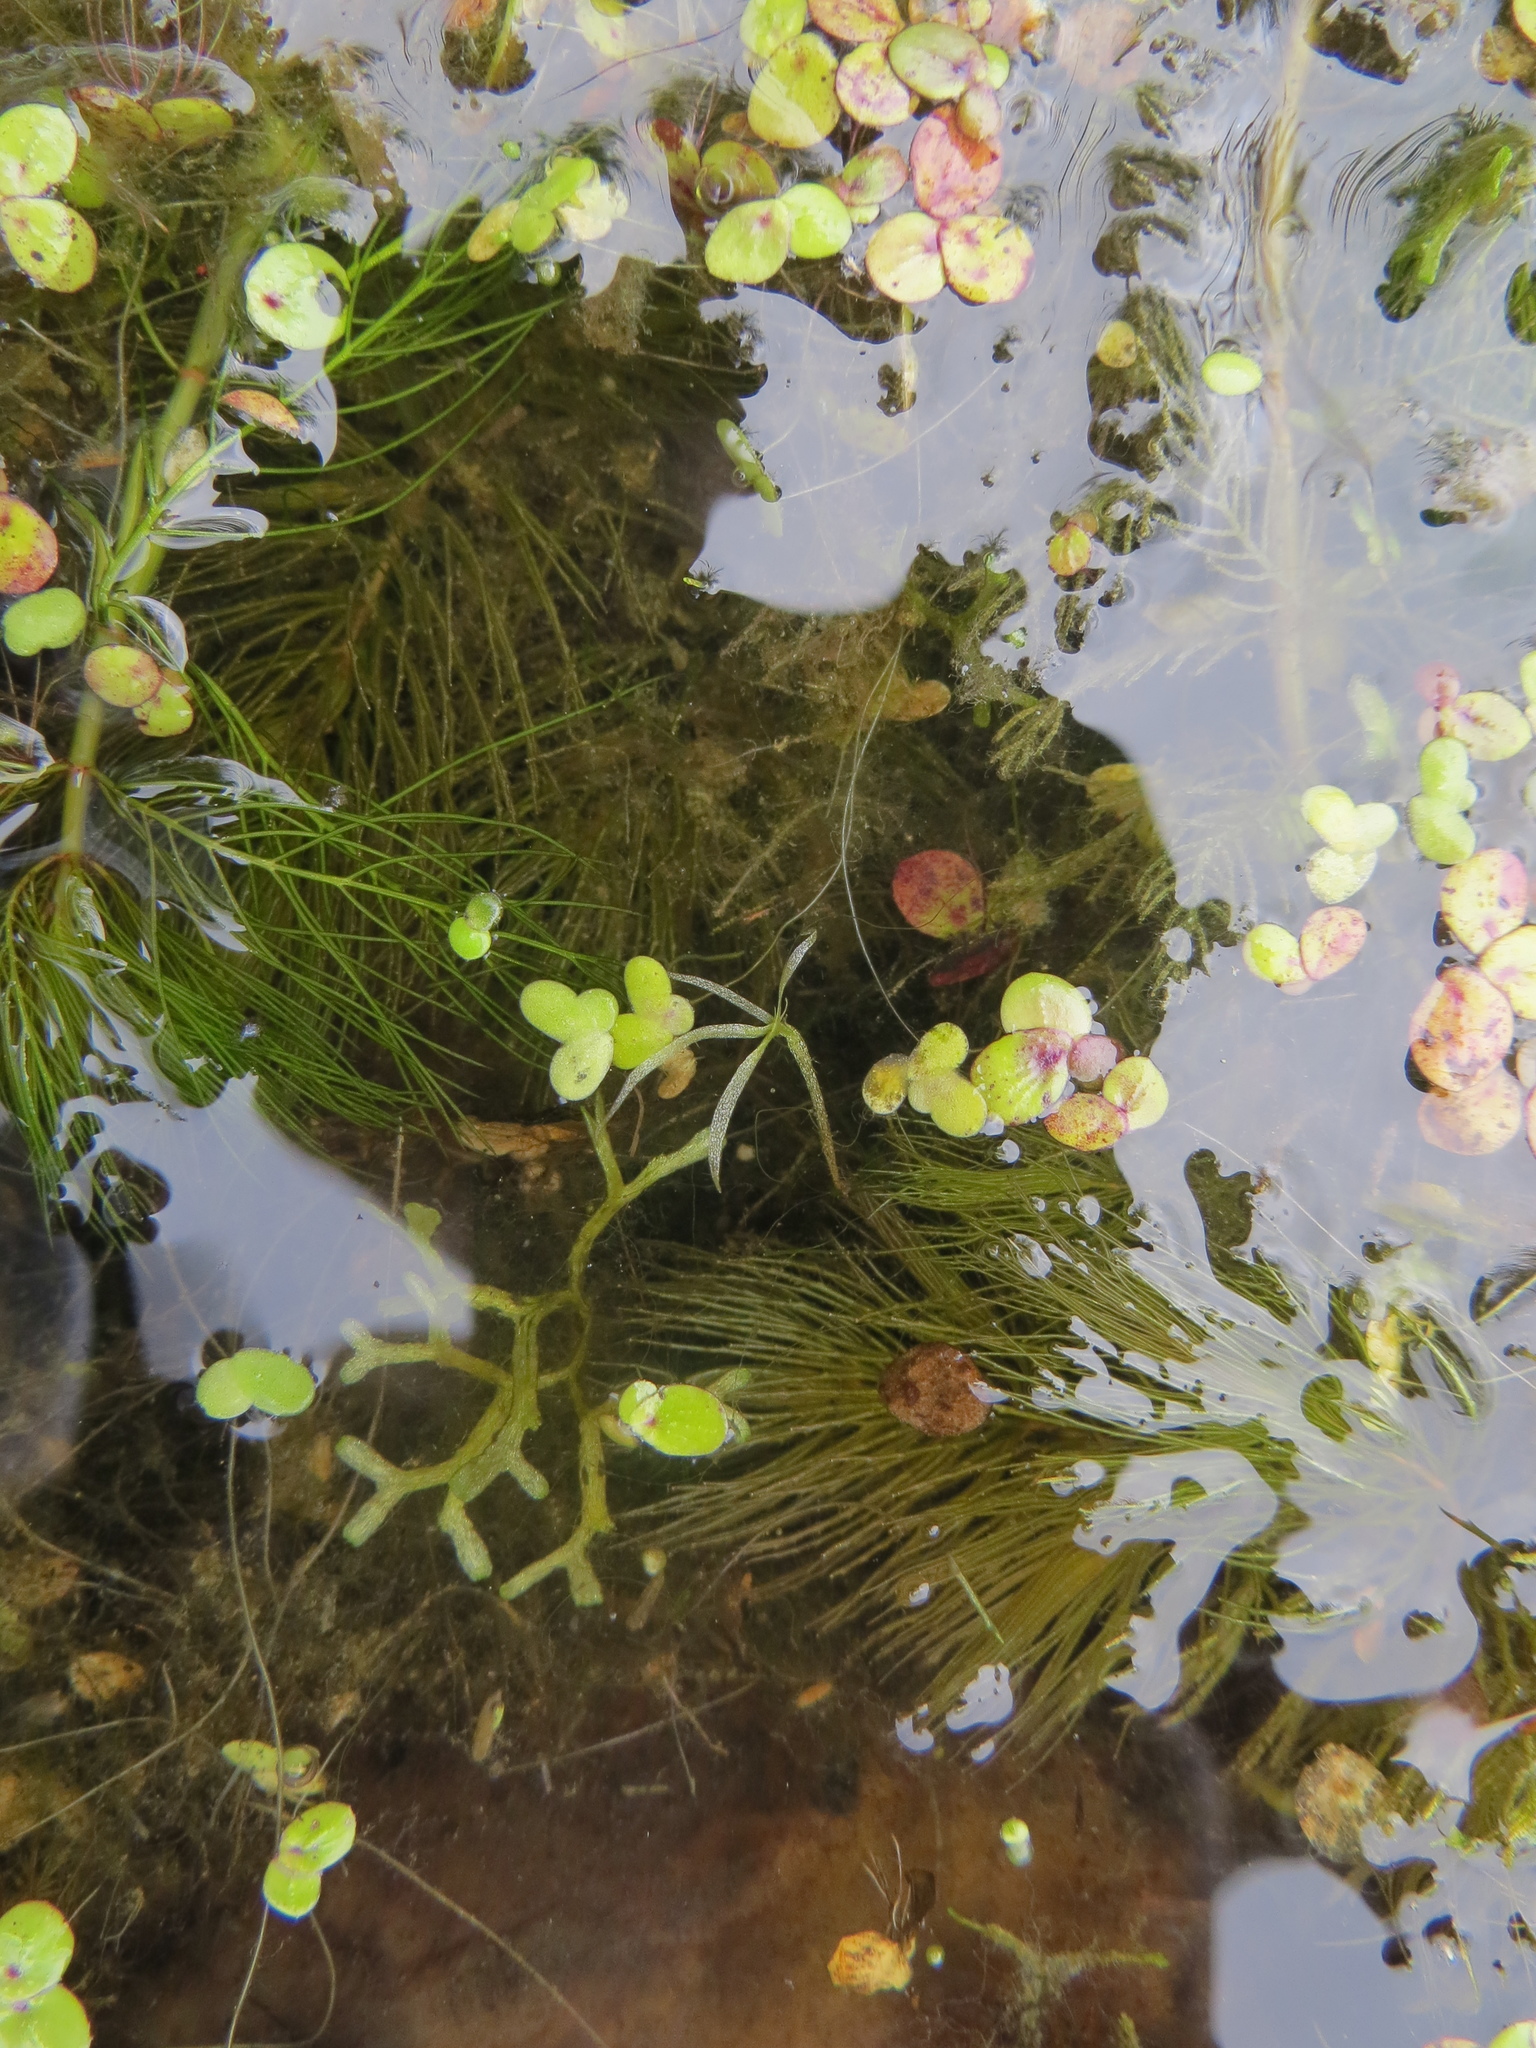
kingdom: Plantae
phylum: Tracheophyta
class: Liliopsida
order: Alismatales
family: Araceae
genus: Wolffiella
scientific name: Wolffiella gladiata
